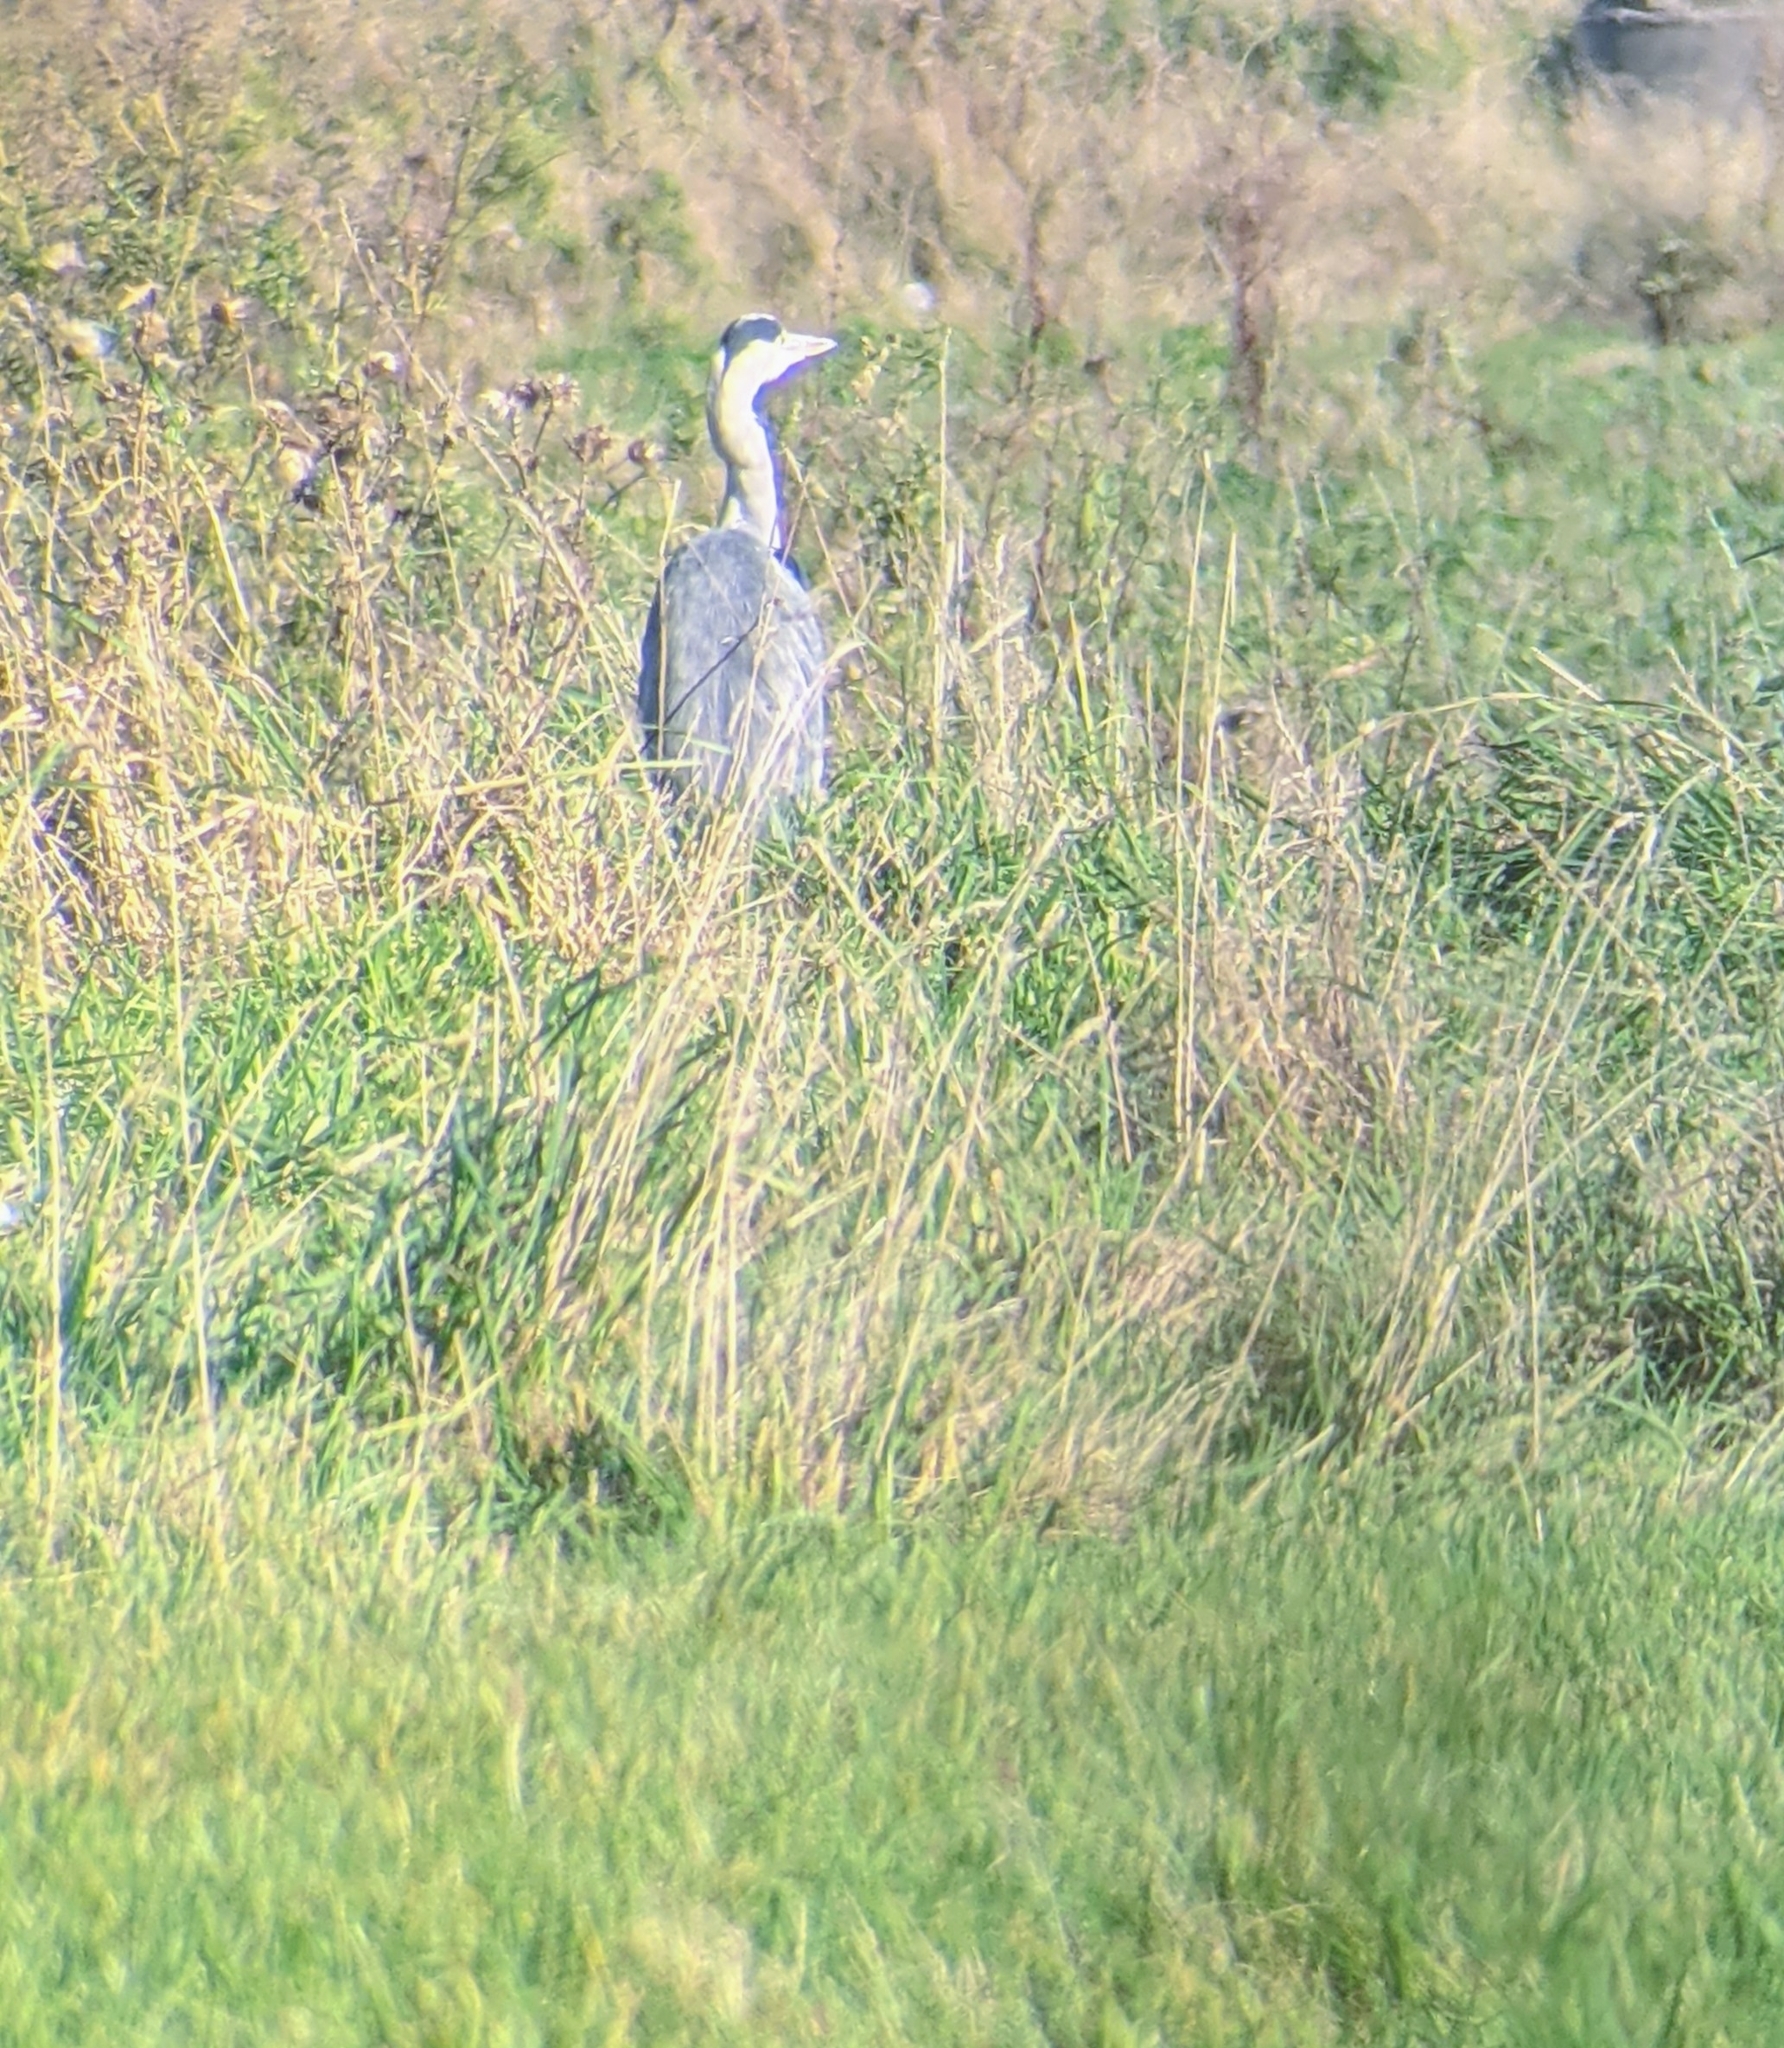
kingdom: Animalia
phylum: Chordata
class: Aves
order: Pelecaniformes
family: Ardeidae
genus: Ardea
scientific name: Ardea cinerea
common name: Grey heron
